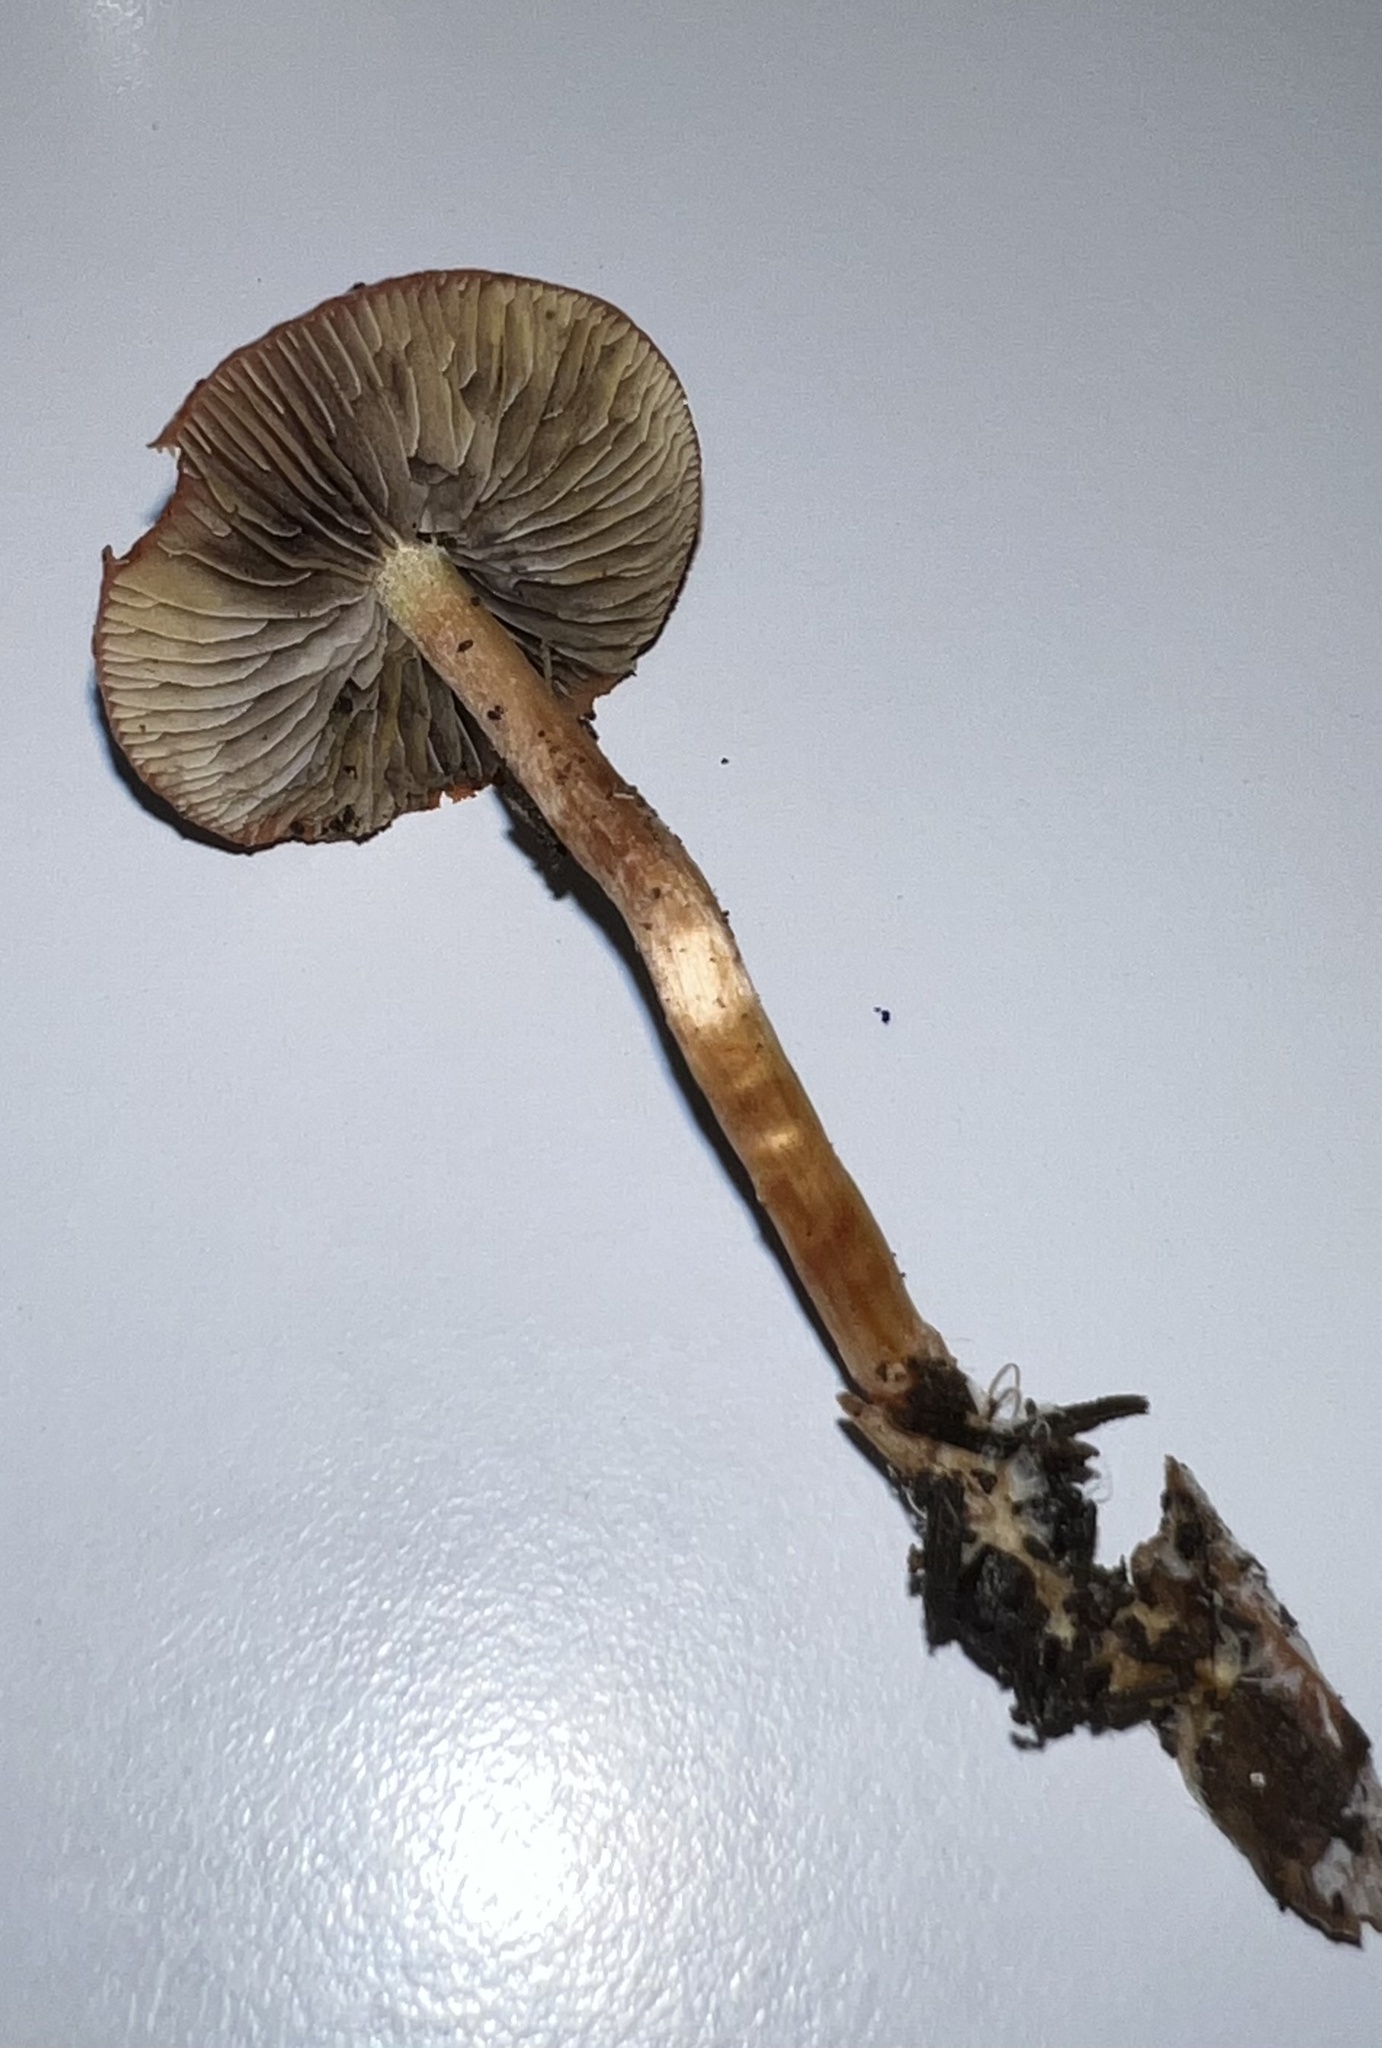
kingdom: Fungi
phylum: Basidiomycota
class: Agaricomycetes
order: Agaricales
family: Strophariaceae
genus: Leratiomyces
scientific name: Leratiomyces ceres
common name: Redlead roundhead
